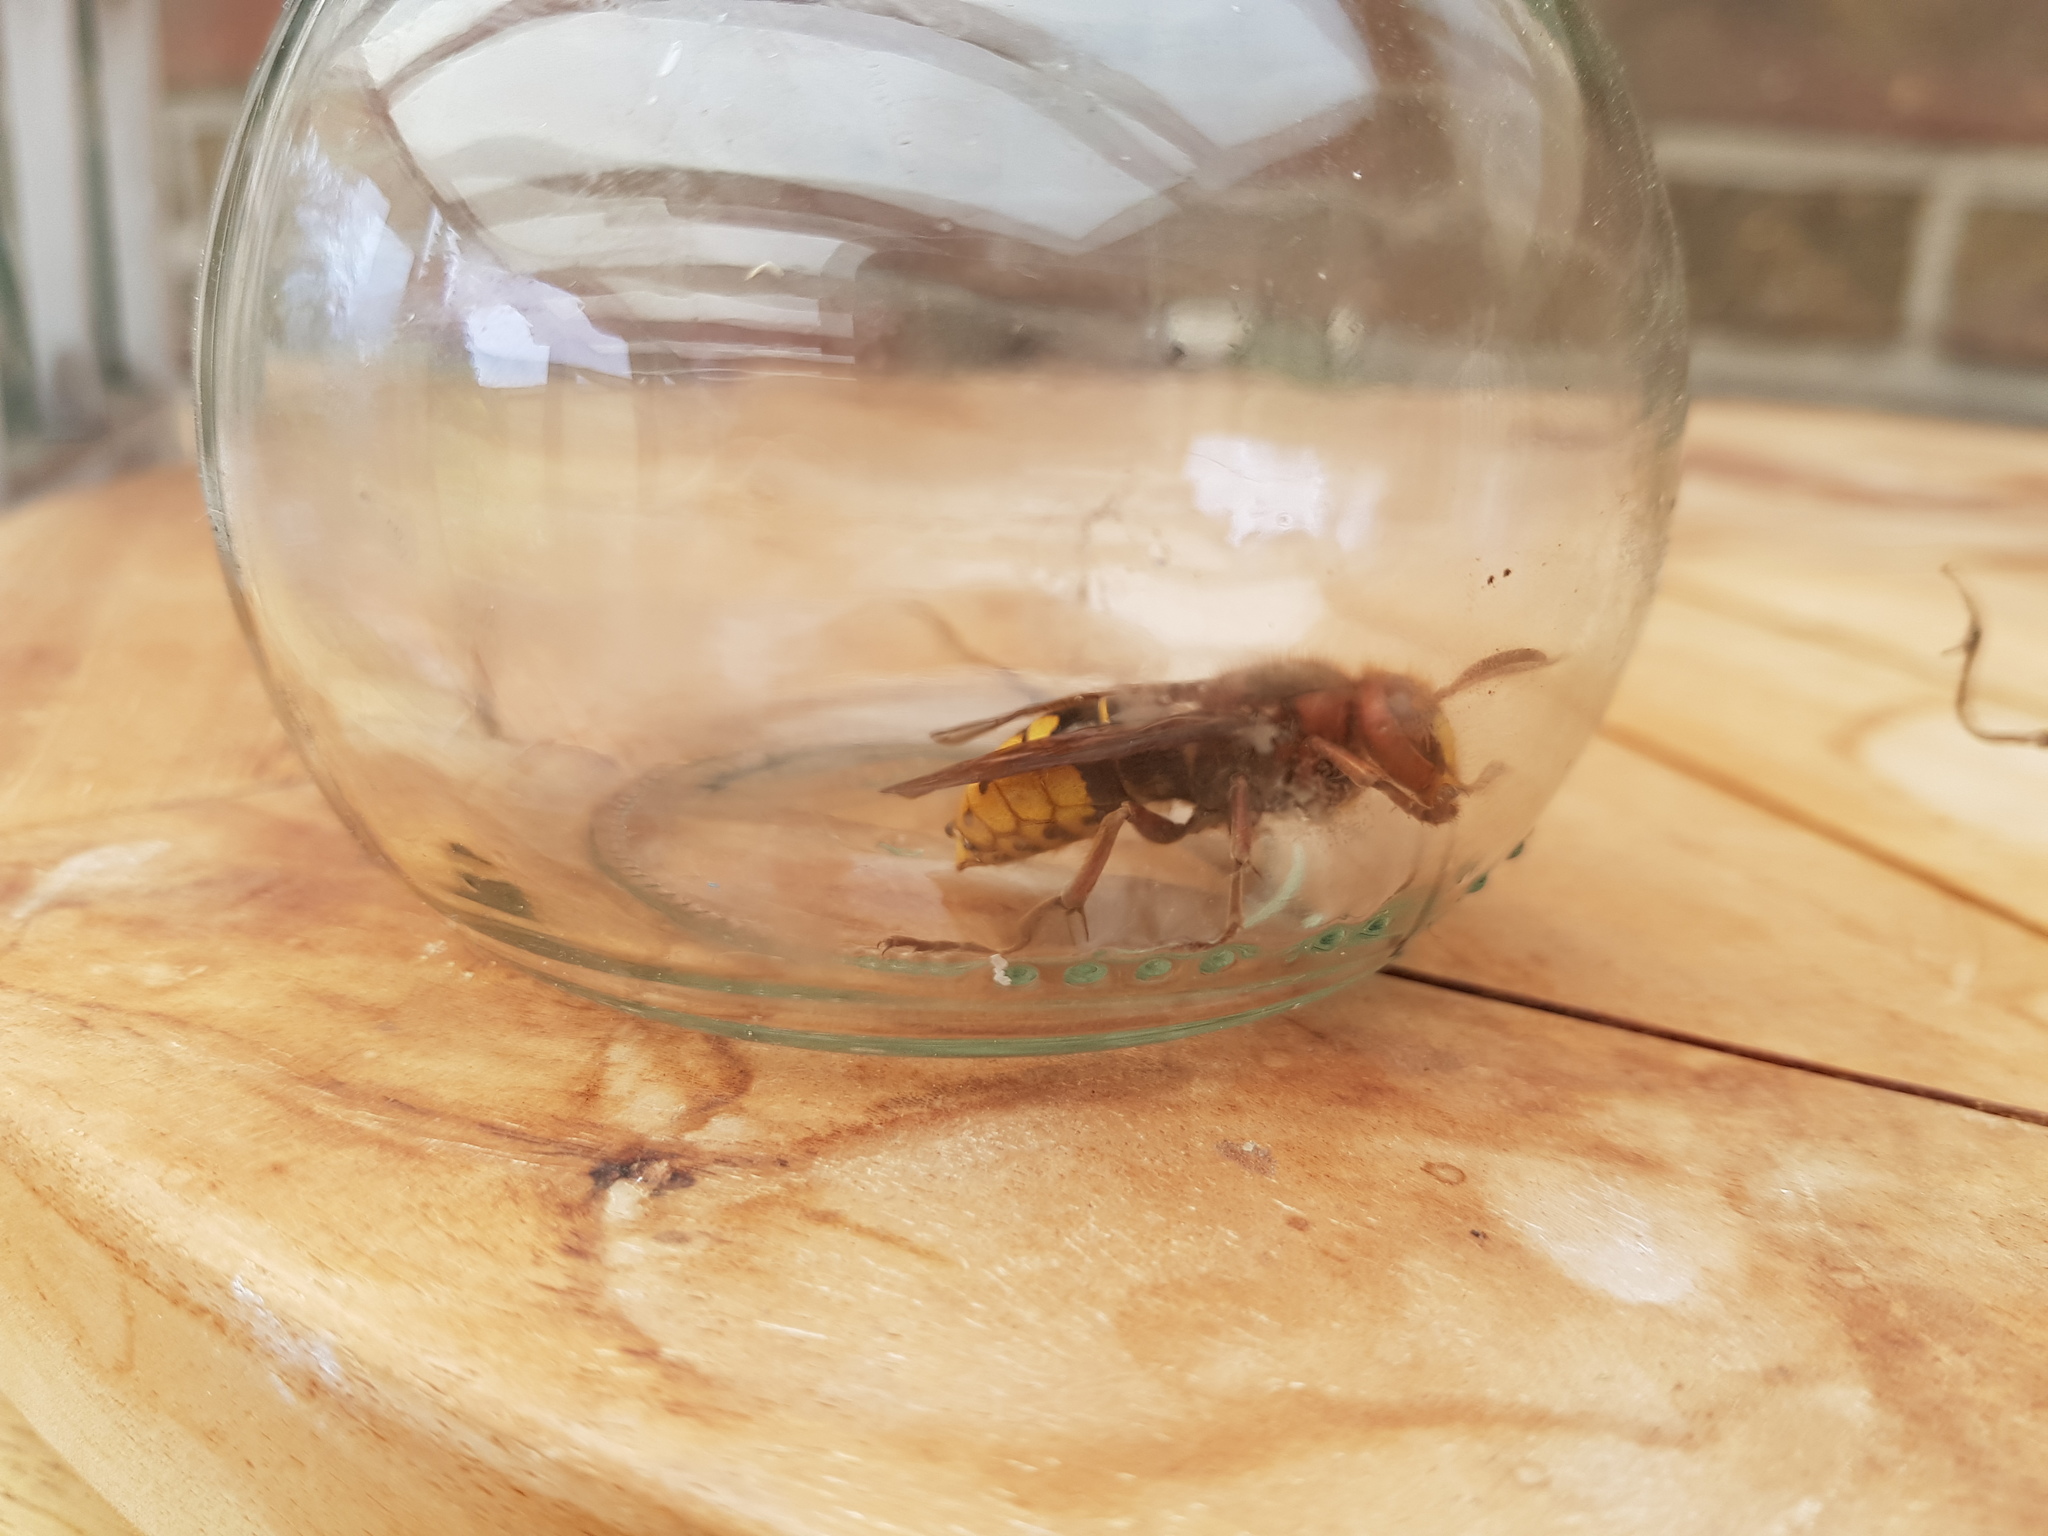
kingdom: Animalia
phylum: Arthropoda
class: Insecta
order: Hymenoptera
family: Vespidae
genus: Vespa
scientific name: Vespa crabro
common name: Hornet
